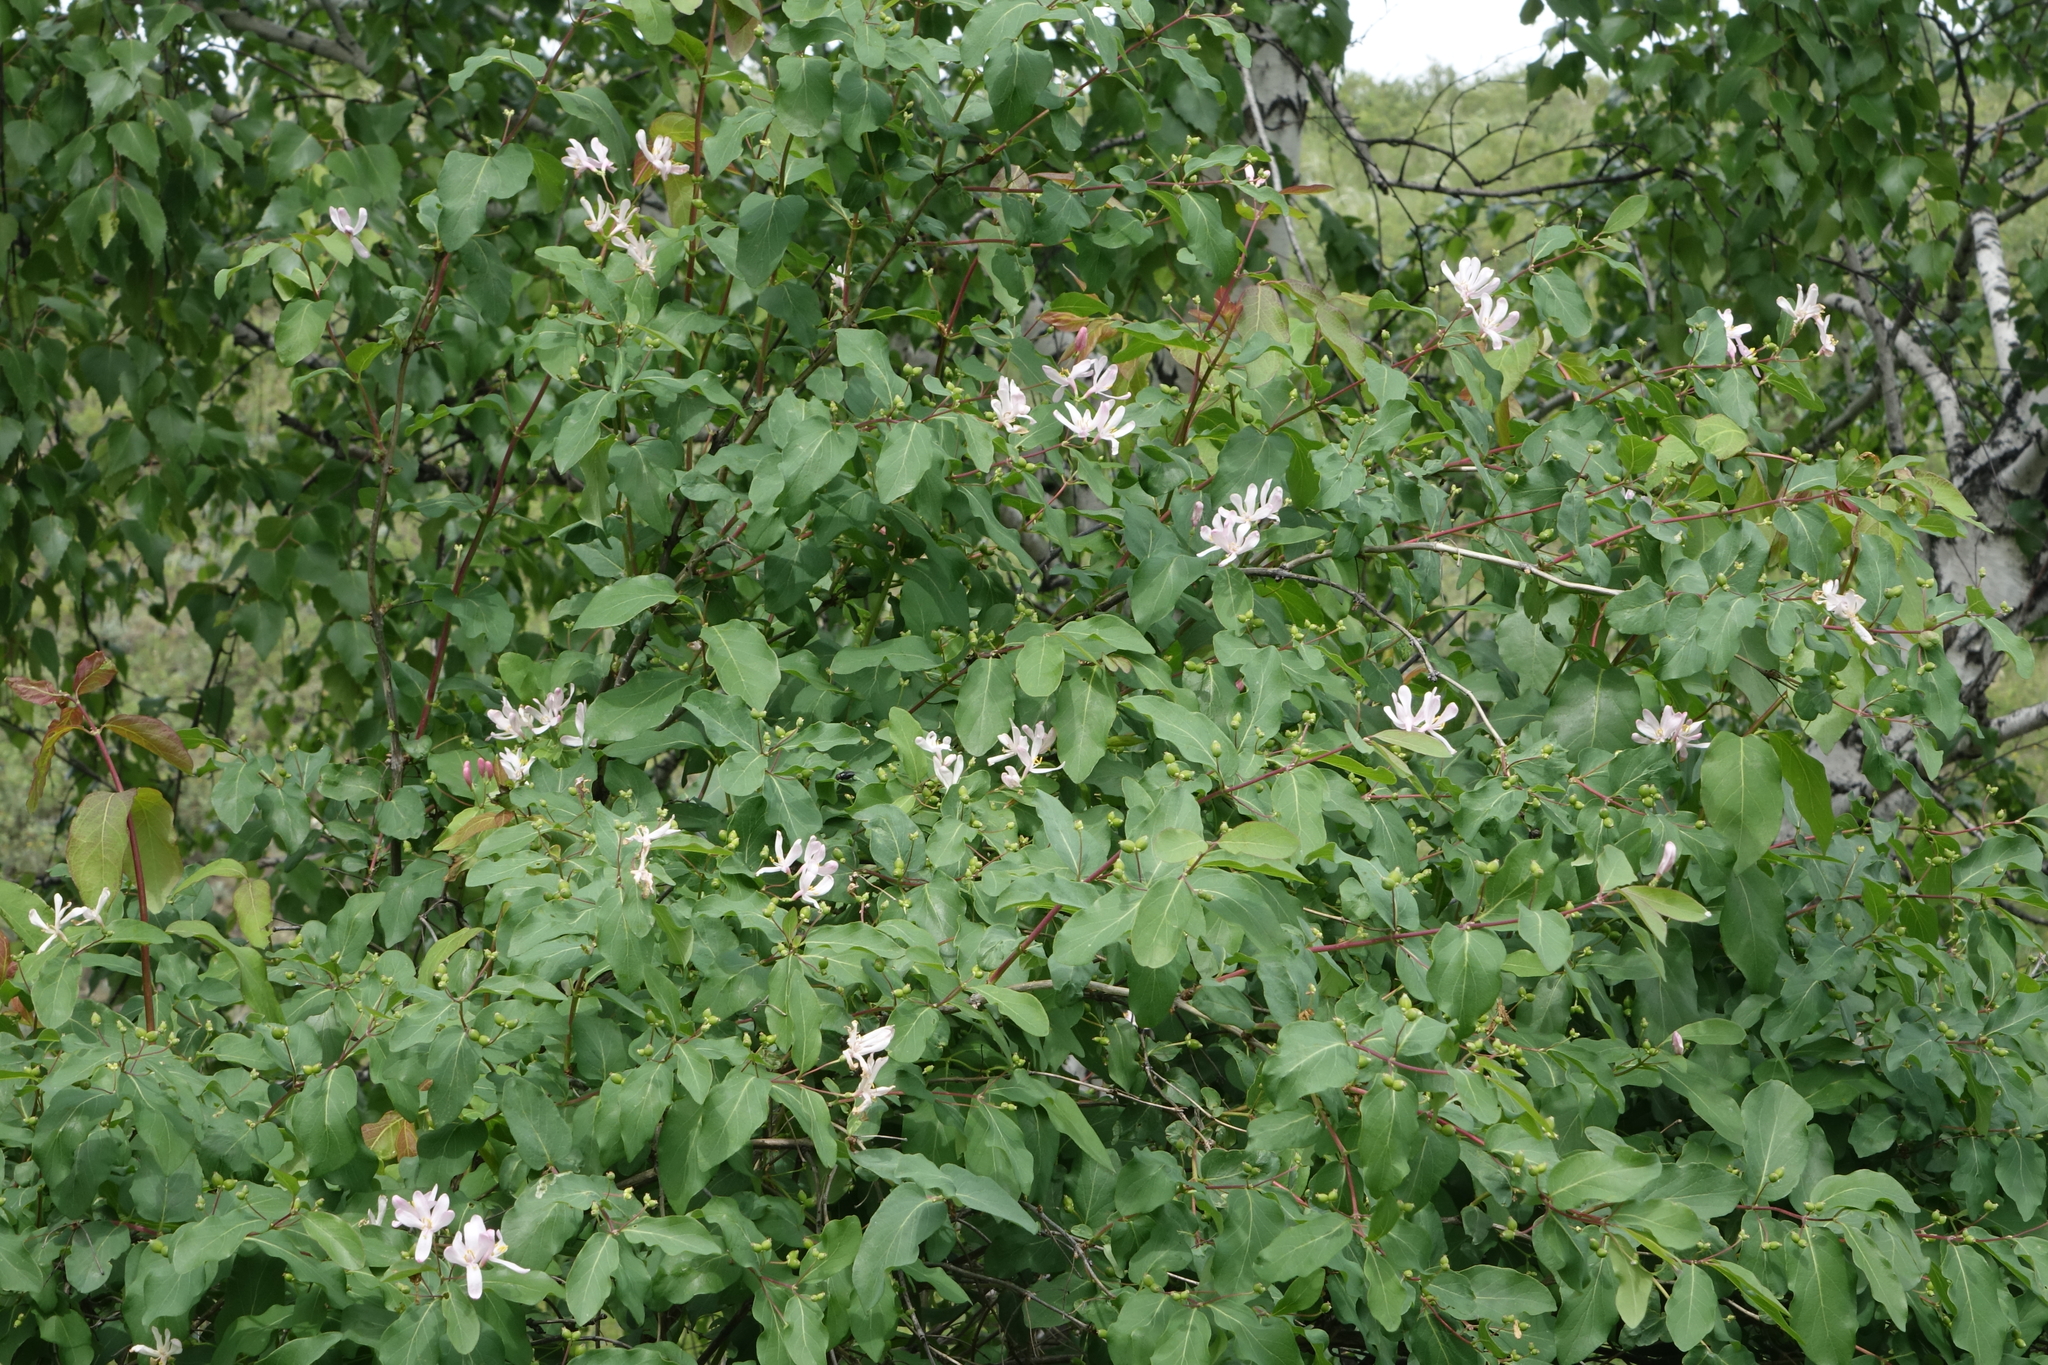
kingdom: Plantae
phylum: Tracheophyta
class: Magnoliopsida
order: Dipsacales
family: Caprifoliaceae
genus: Lonicera
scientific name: Lonicera tatarica
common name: Tatarian honeysuckle
